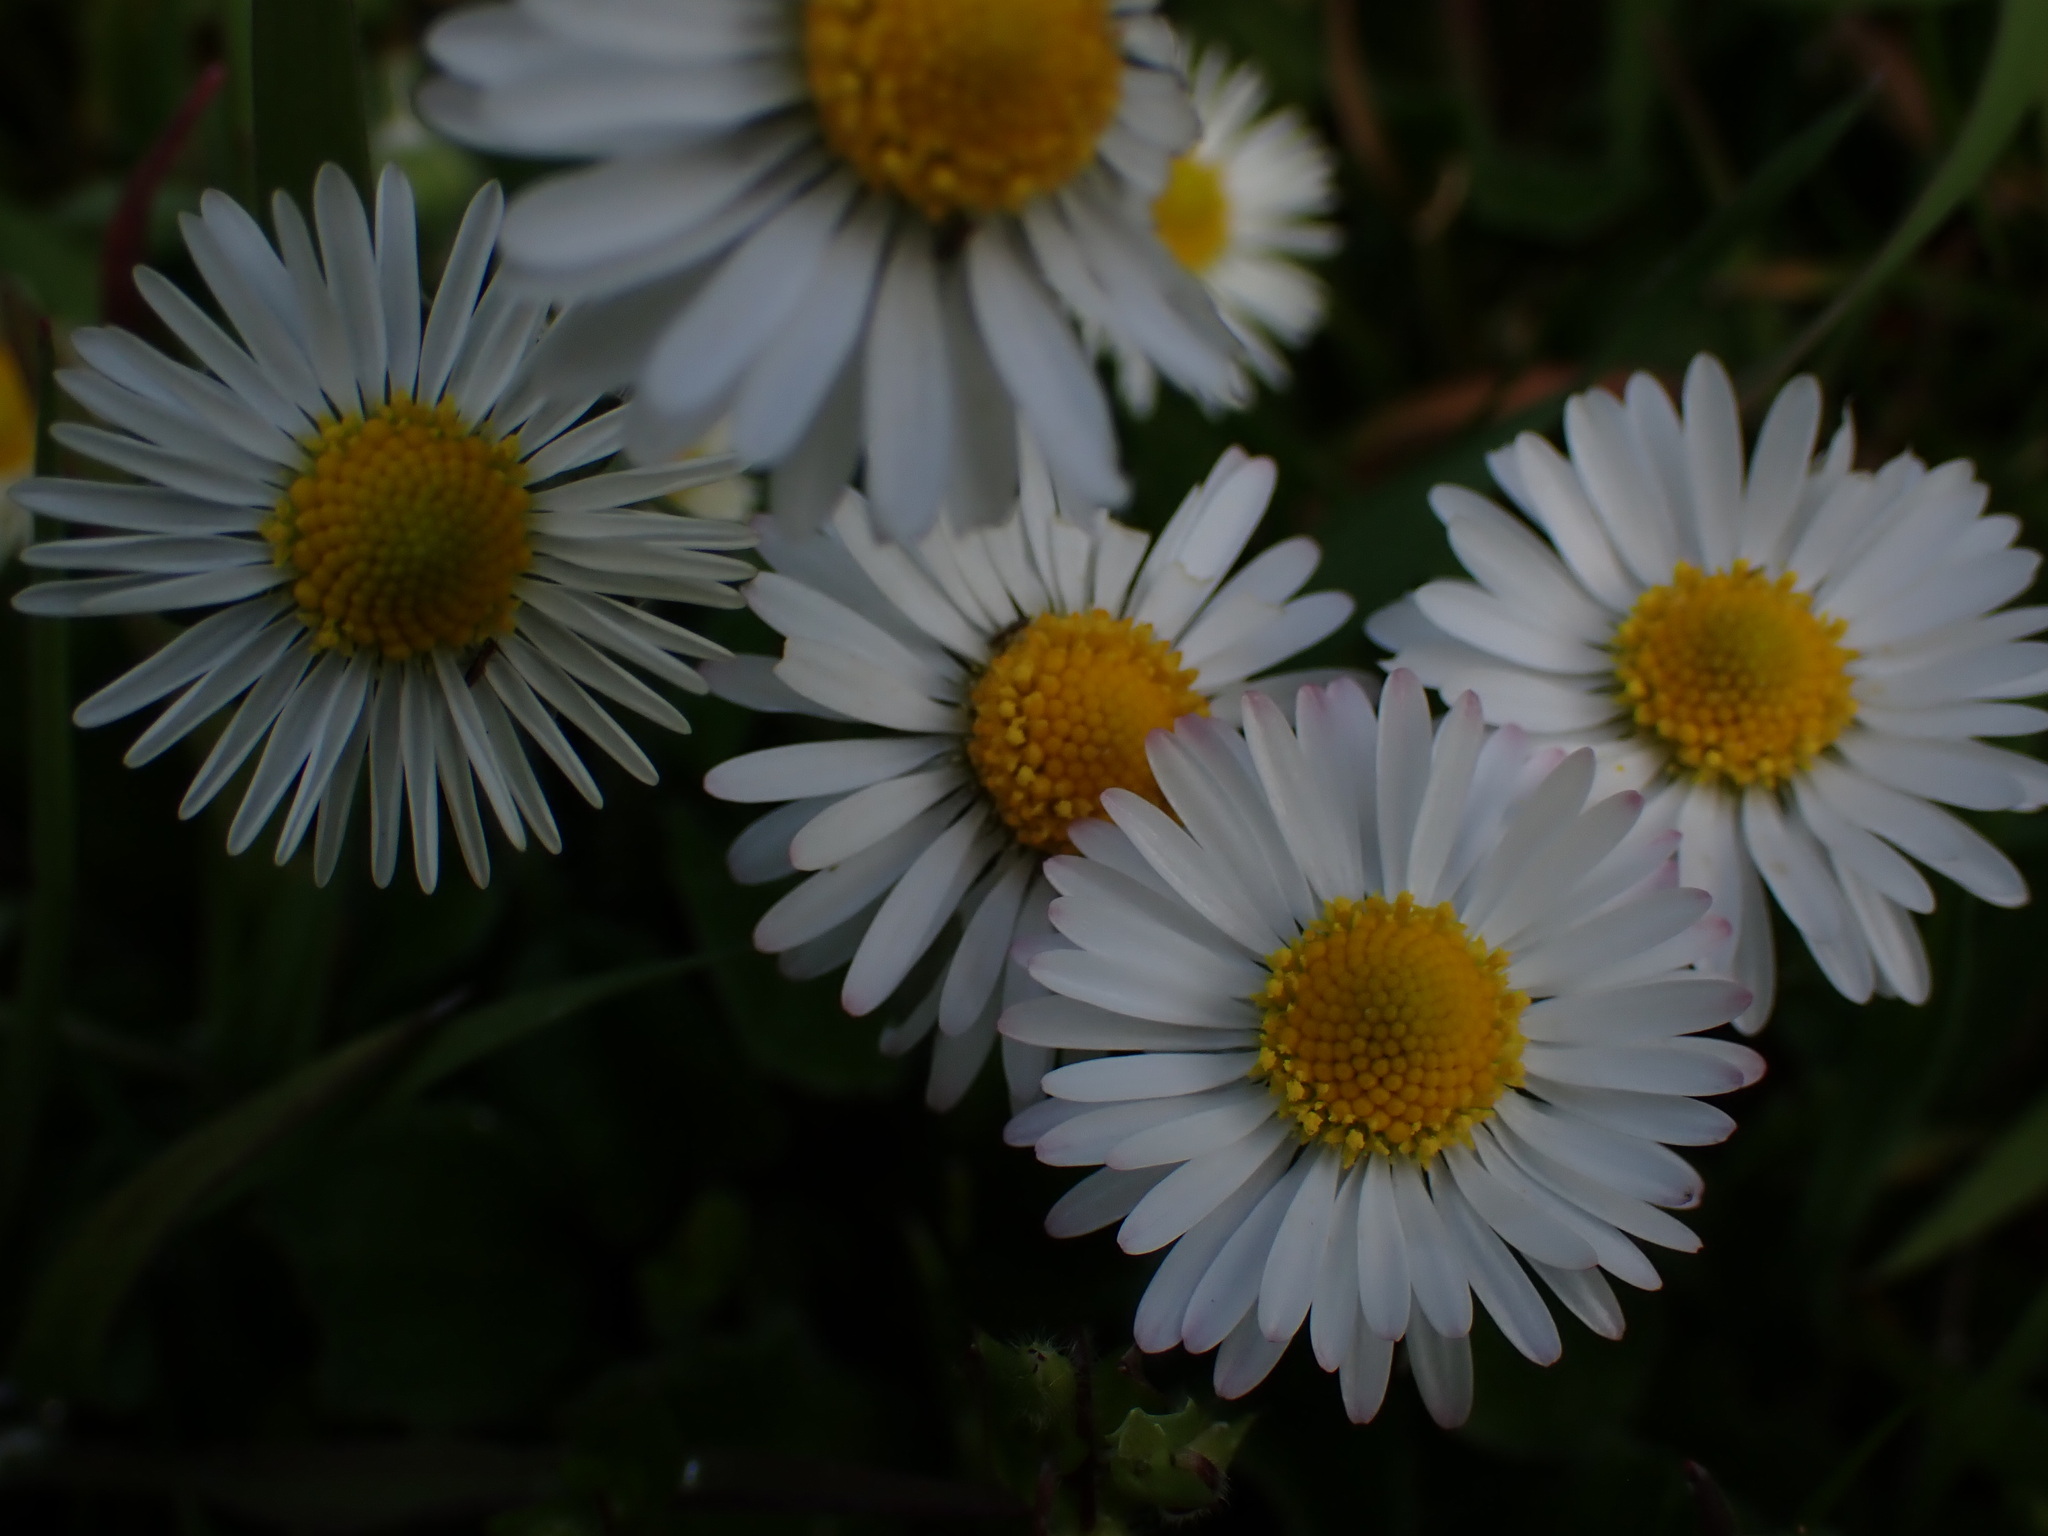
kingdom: Plantae
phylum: Tracheophyta
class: Magnoliopsida
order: Asterales
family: Asteraceae
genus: Bellis
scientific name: Bellis perennis
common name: Lawndaisy
